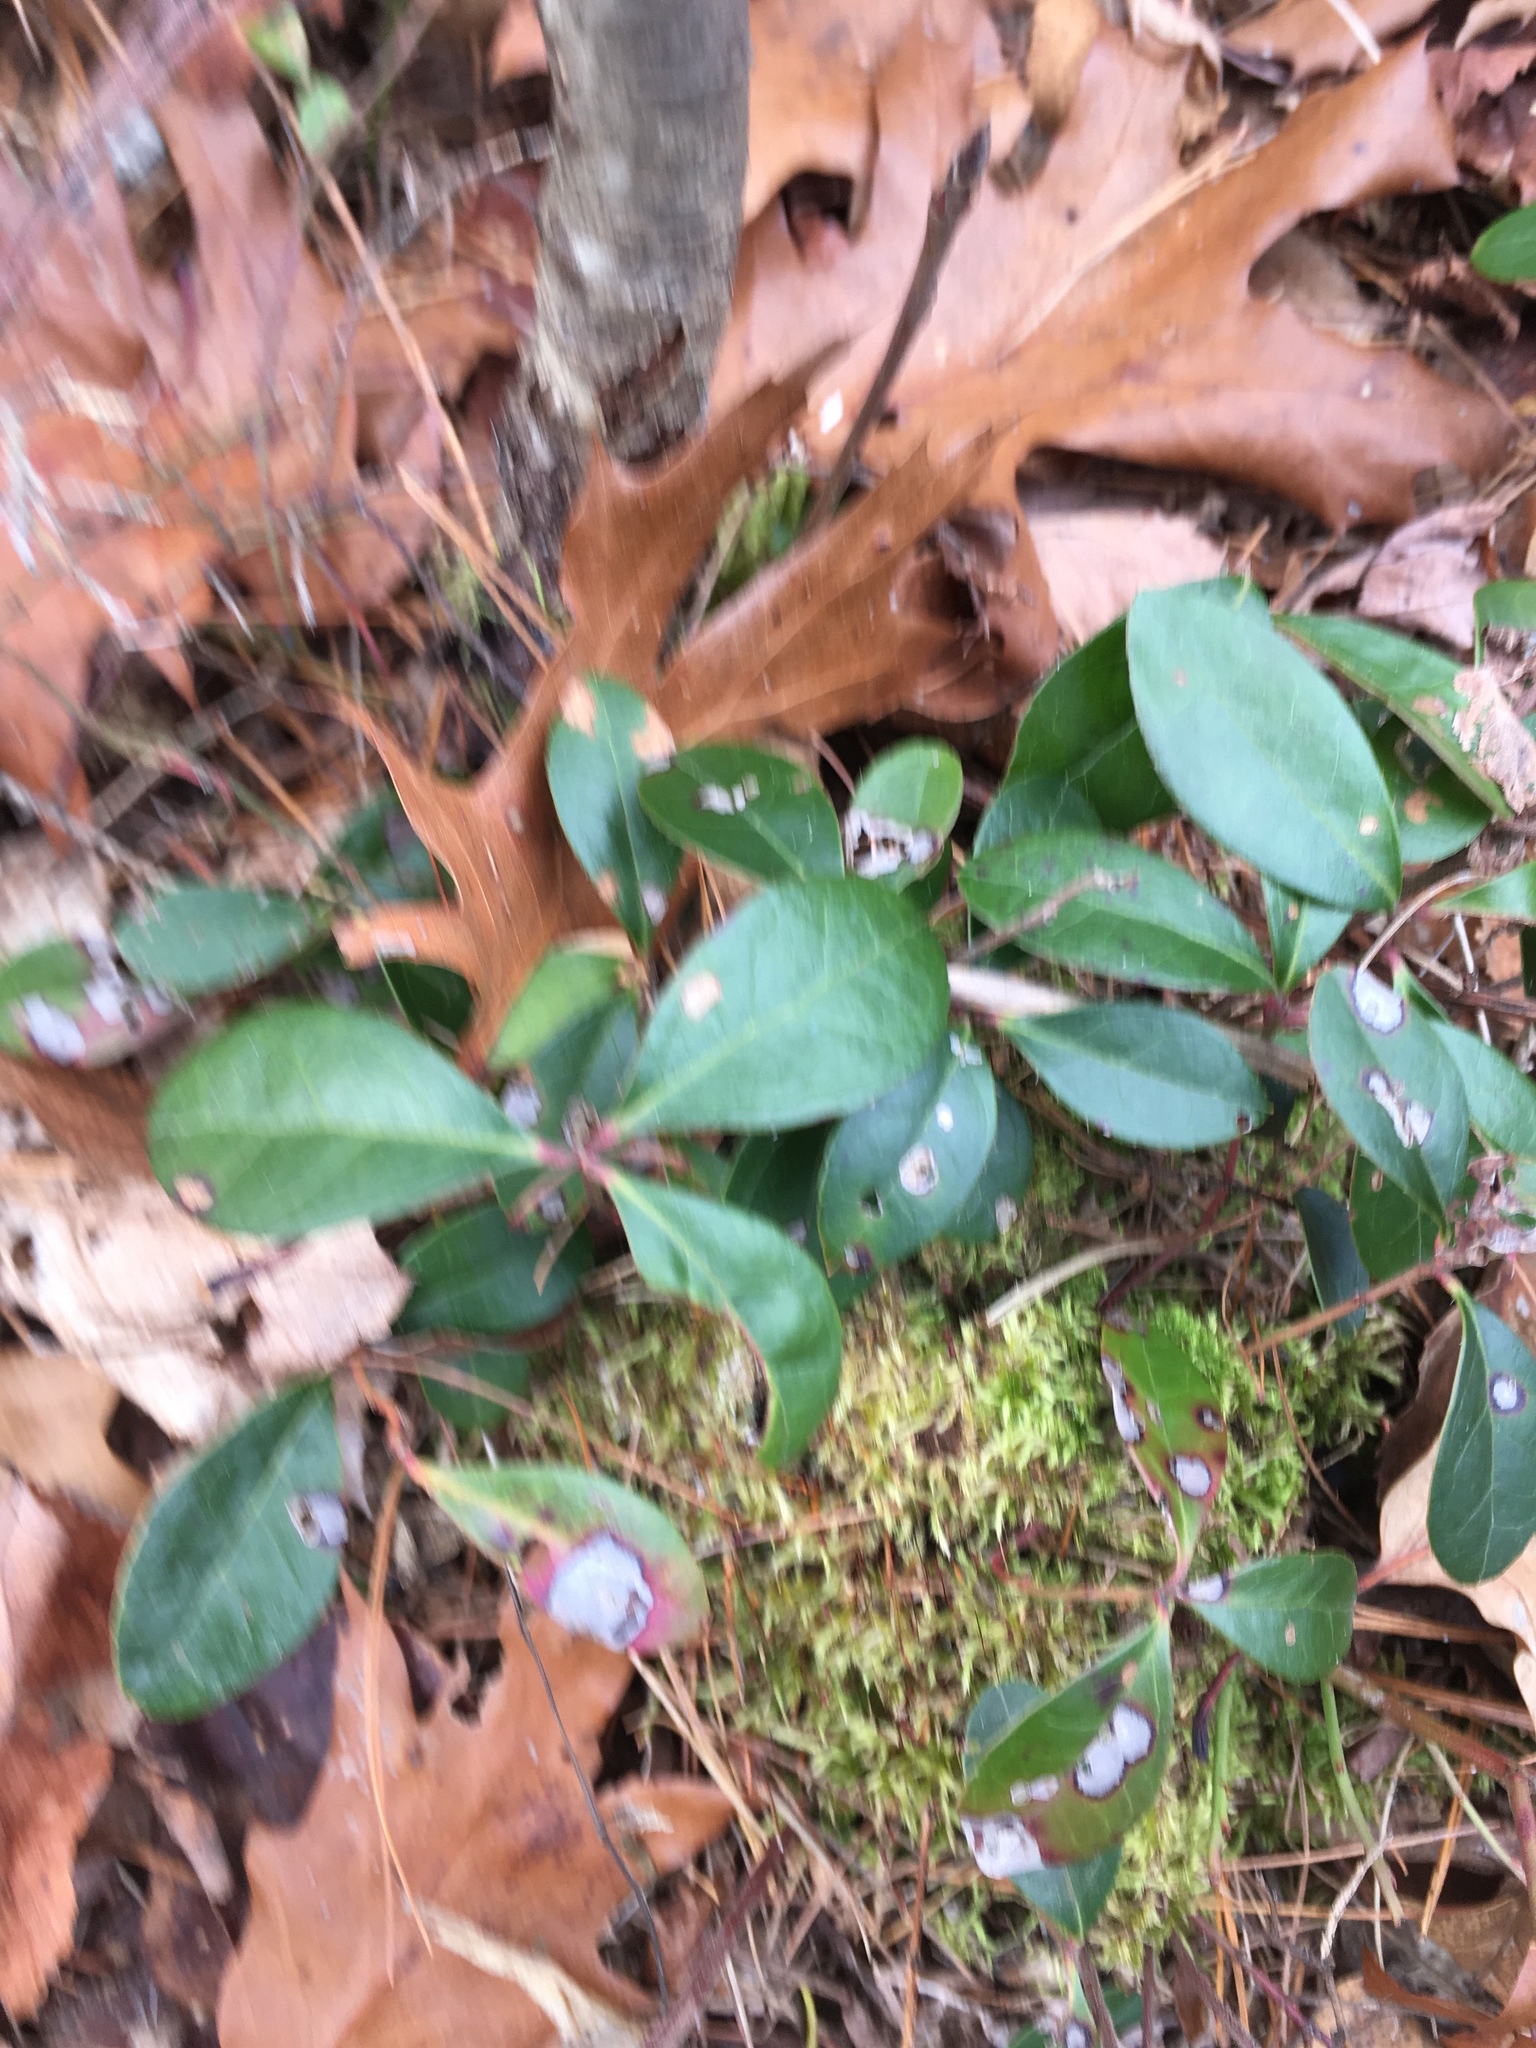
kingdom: Plantae
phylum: Tracheophyta
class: Magnoliopsida
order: Ericales
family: Ericaceae
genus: Gaultheria
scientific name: Gaultheria procumbens
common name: Checkerberry
